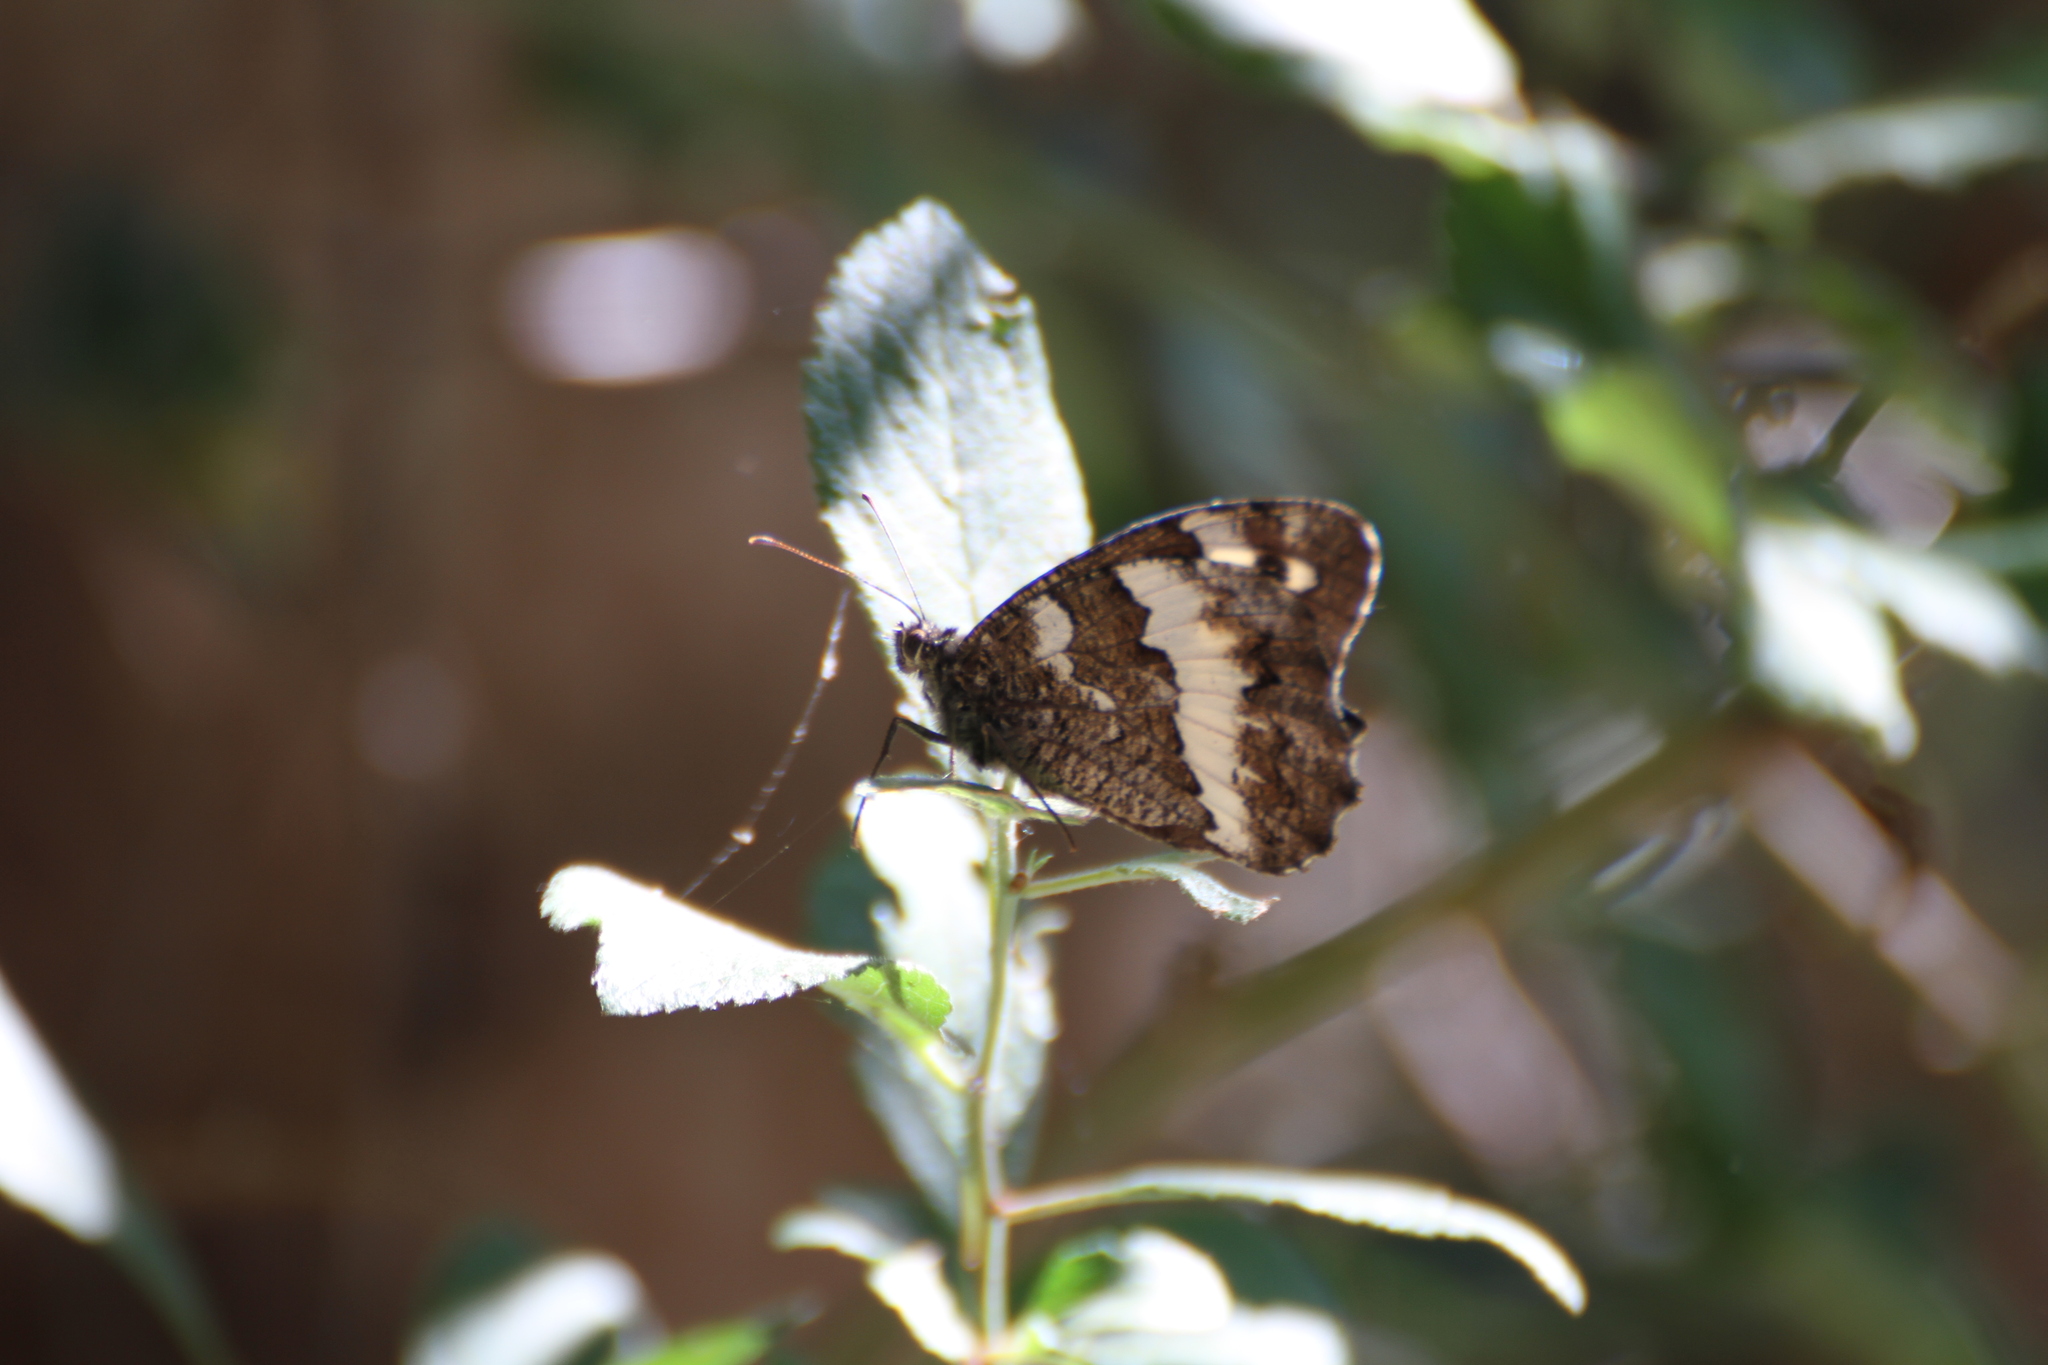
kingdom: Animalia
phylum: Arthropoda
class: Insecta
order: Lepidoptera
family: Lycaenidae
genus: Loweia
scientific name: Loweia tityrus
